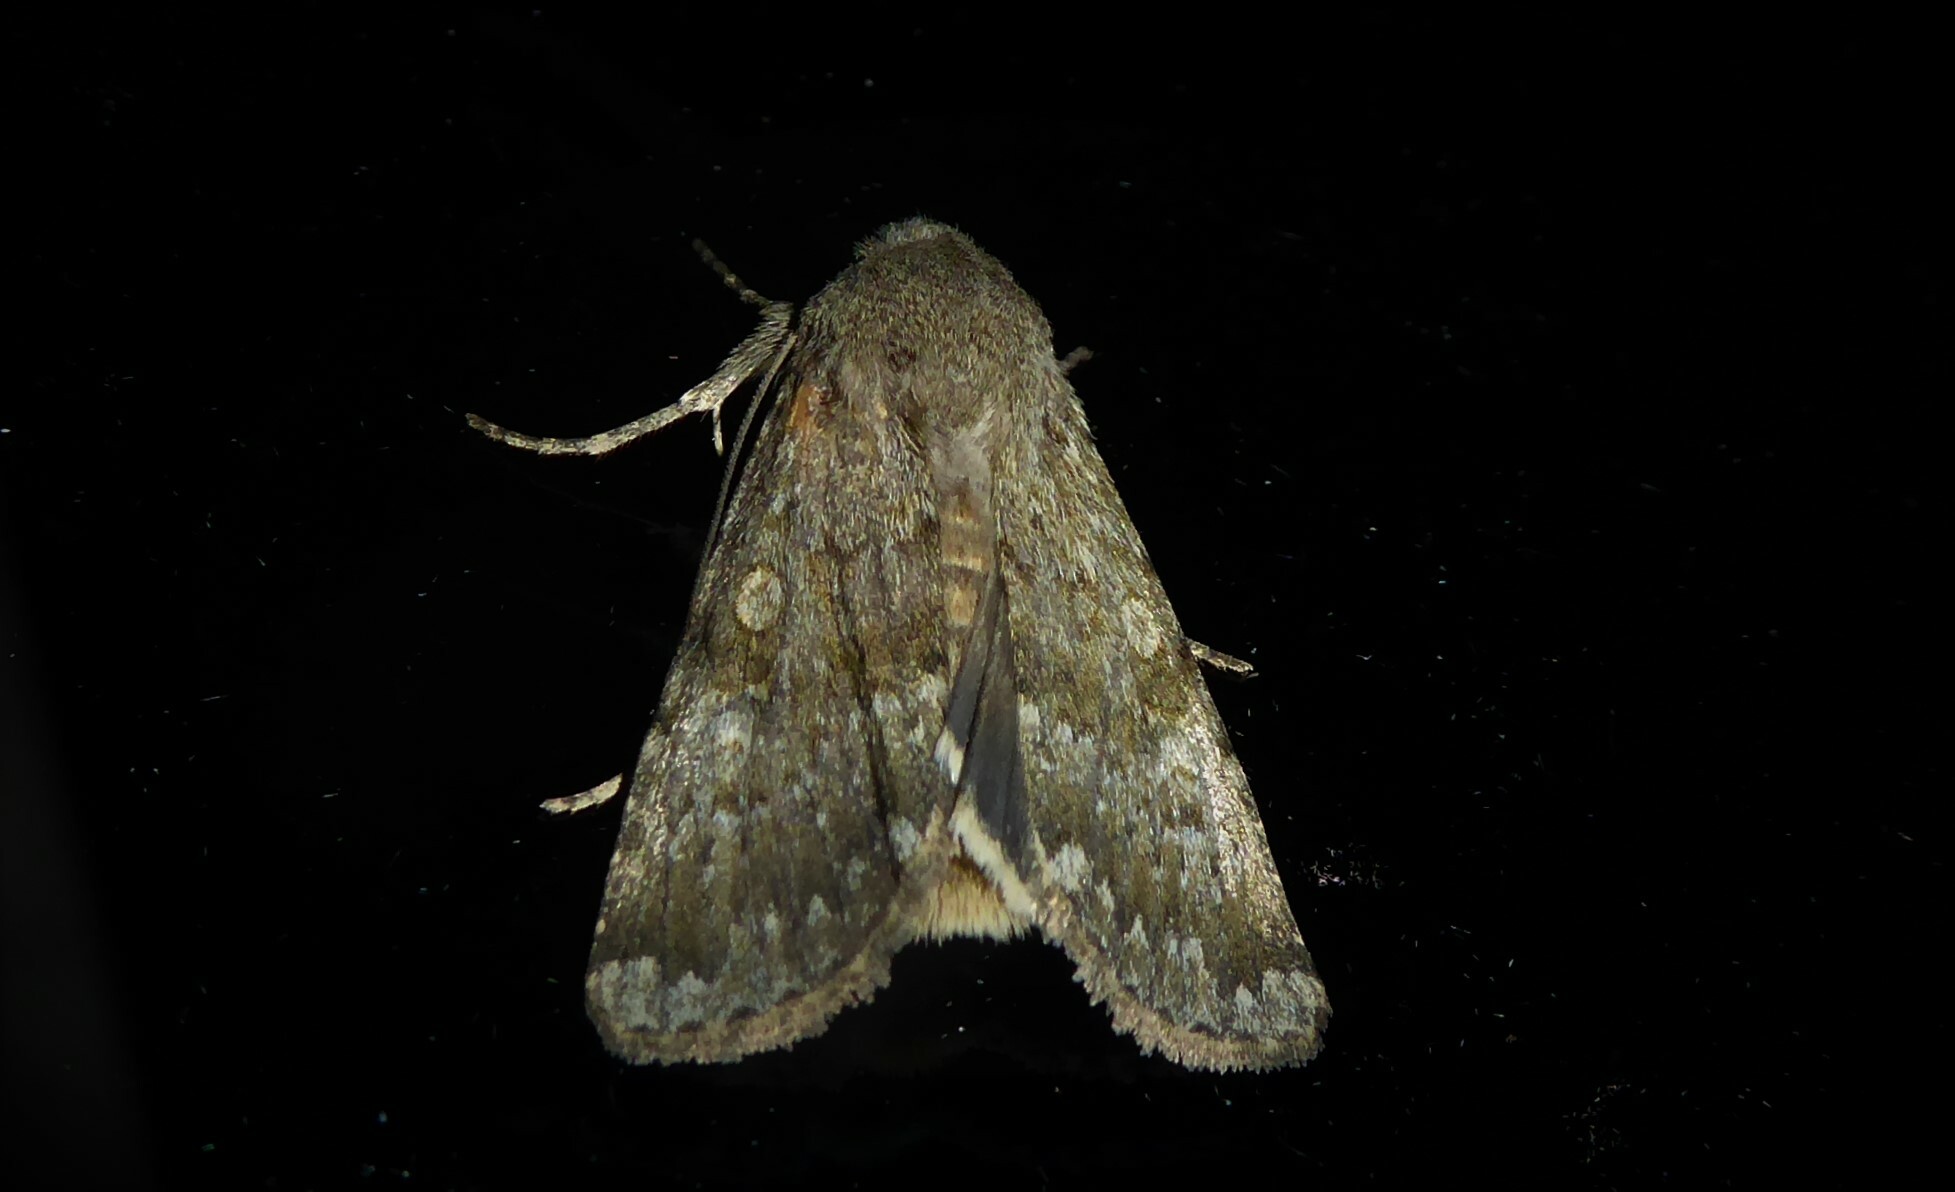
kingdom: Animalia
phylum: Arthropoda
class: Insecta
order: Lepidoptera
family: Noctuidae
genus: Ichneutica
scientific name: Ichneutica moderata
